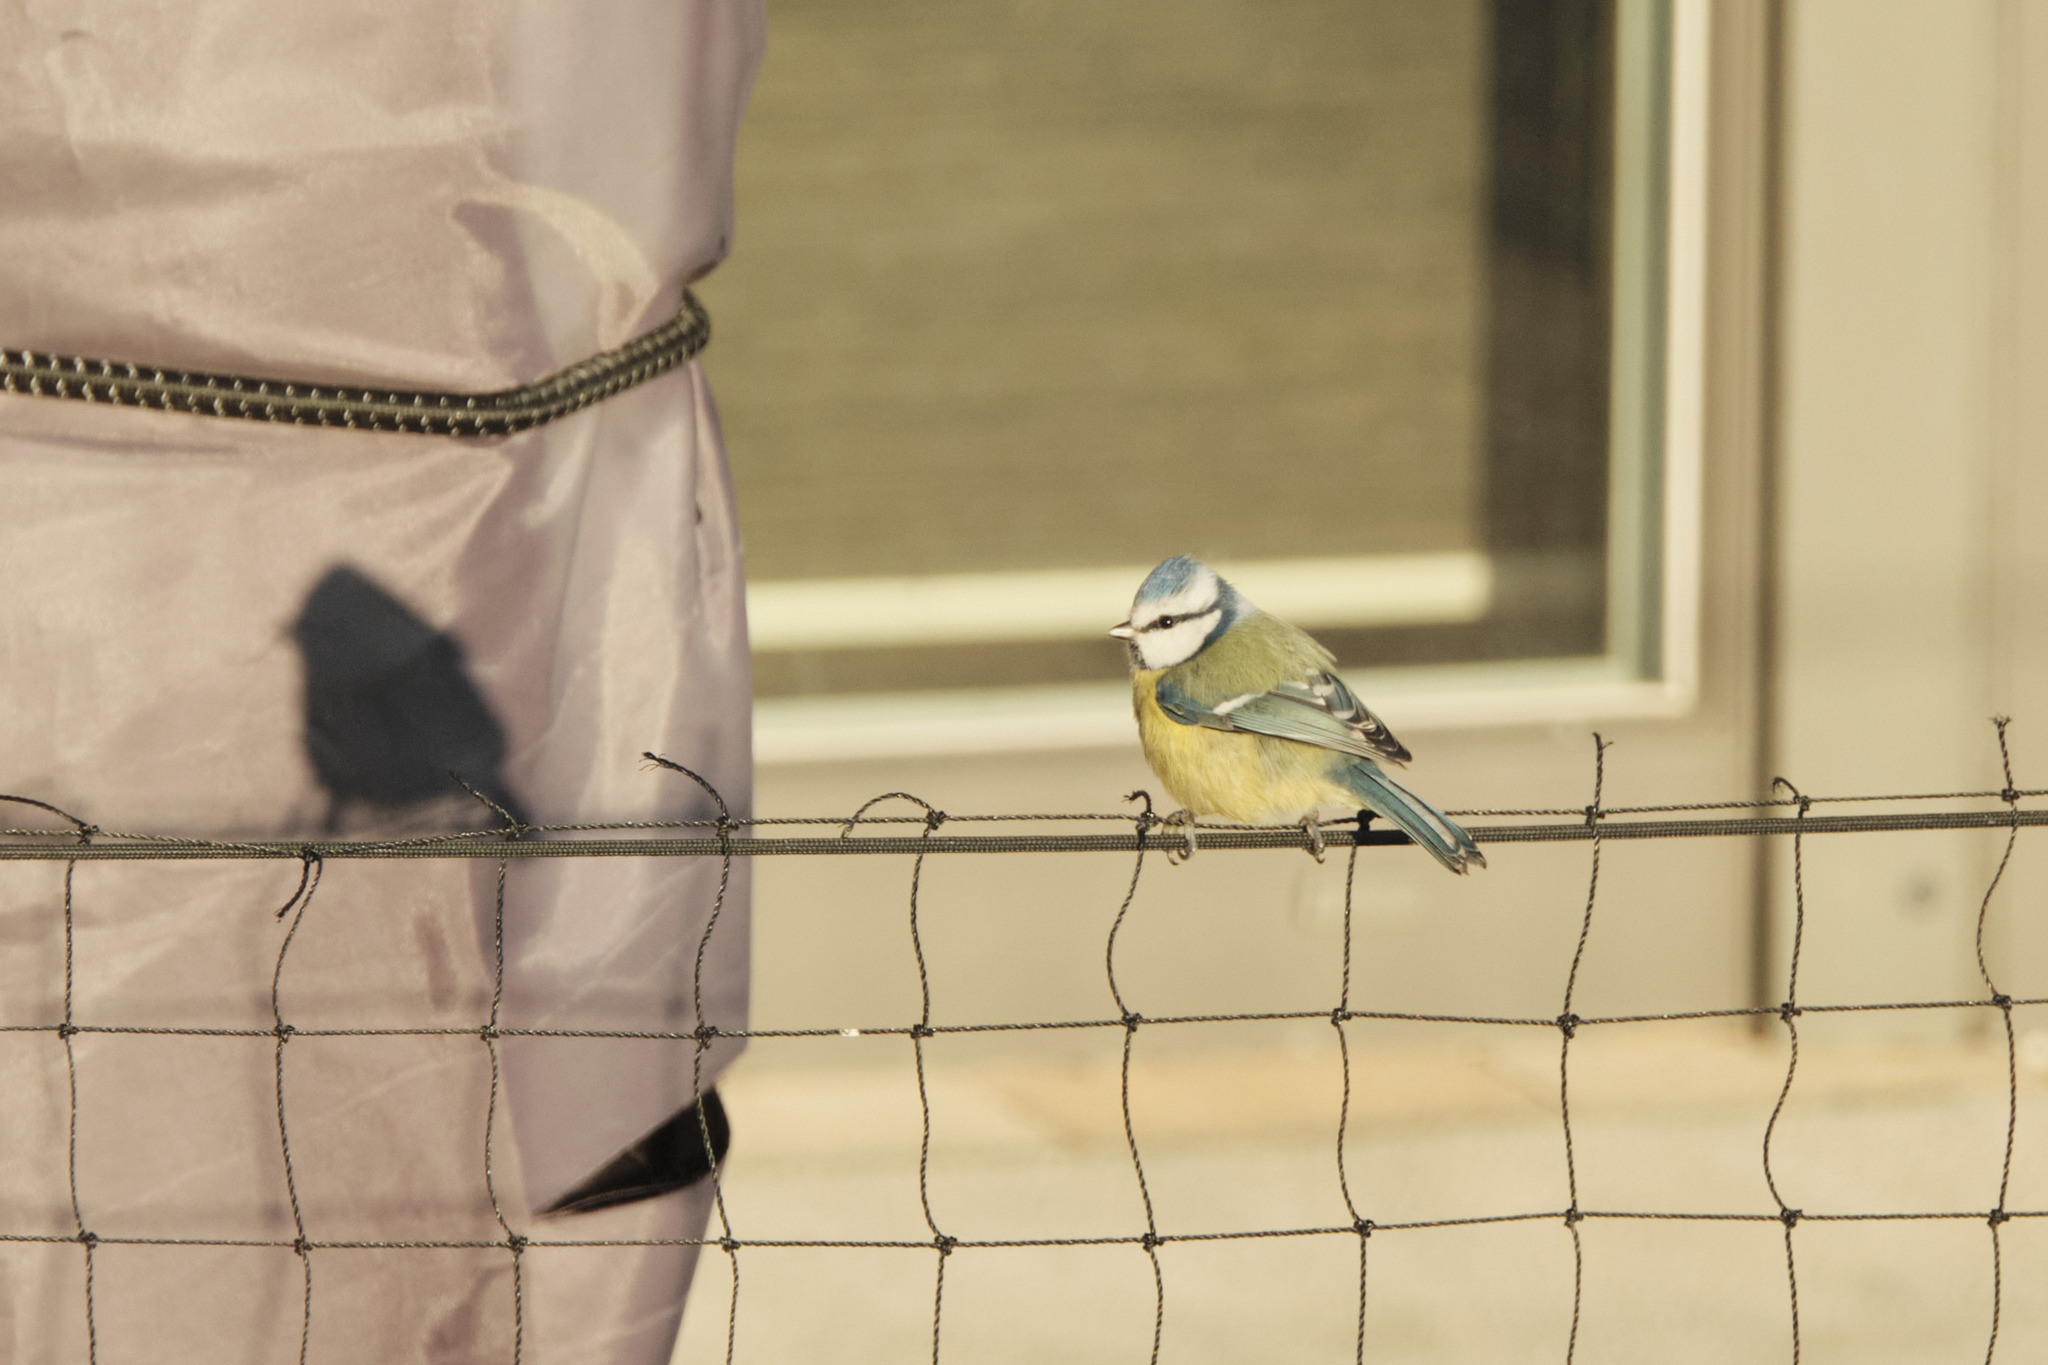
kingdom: Animalia
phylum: Chordata
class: Aves
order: Passeriformes
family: Paridae
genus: Cyanistes
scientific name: Cyanistes caeruleus
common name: Eurasian blue tit
